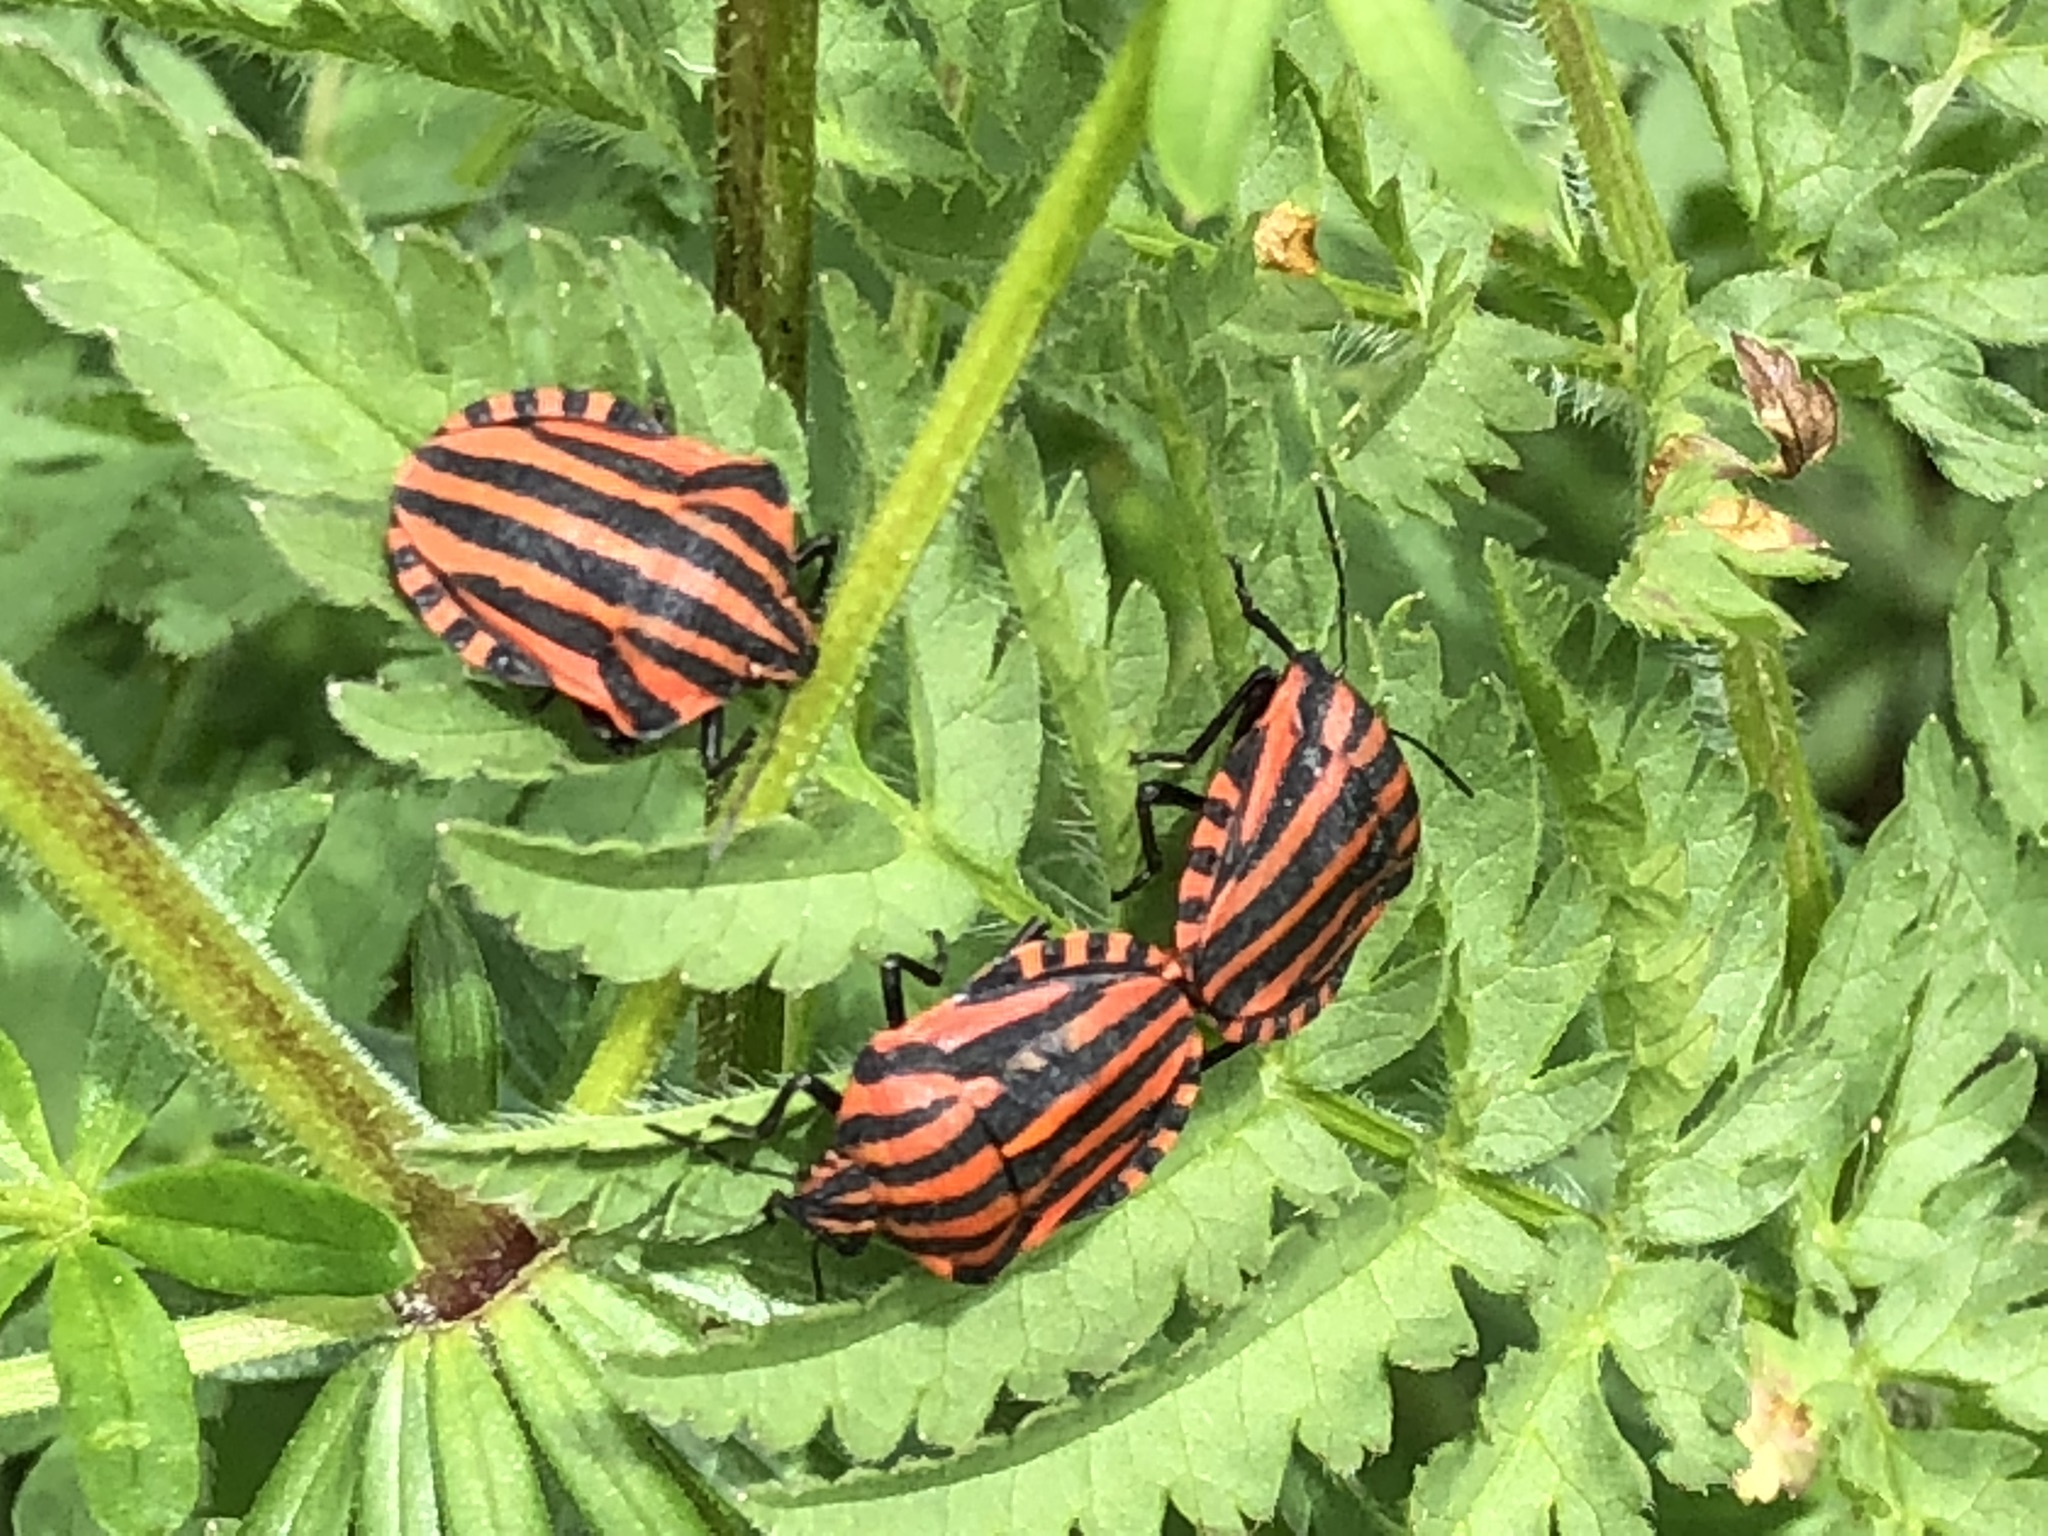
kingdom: Animalia
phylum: Arthropoda
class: Insecta
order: Hemiptera
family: Pentatomidae
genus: Graphosoma
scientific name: Graphosoma italicum
